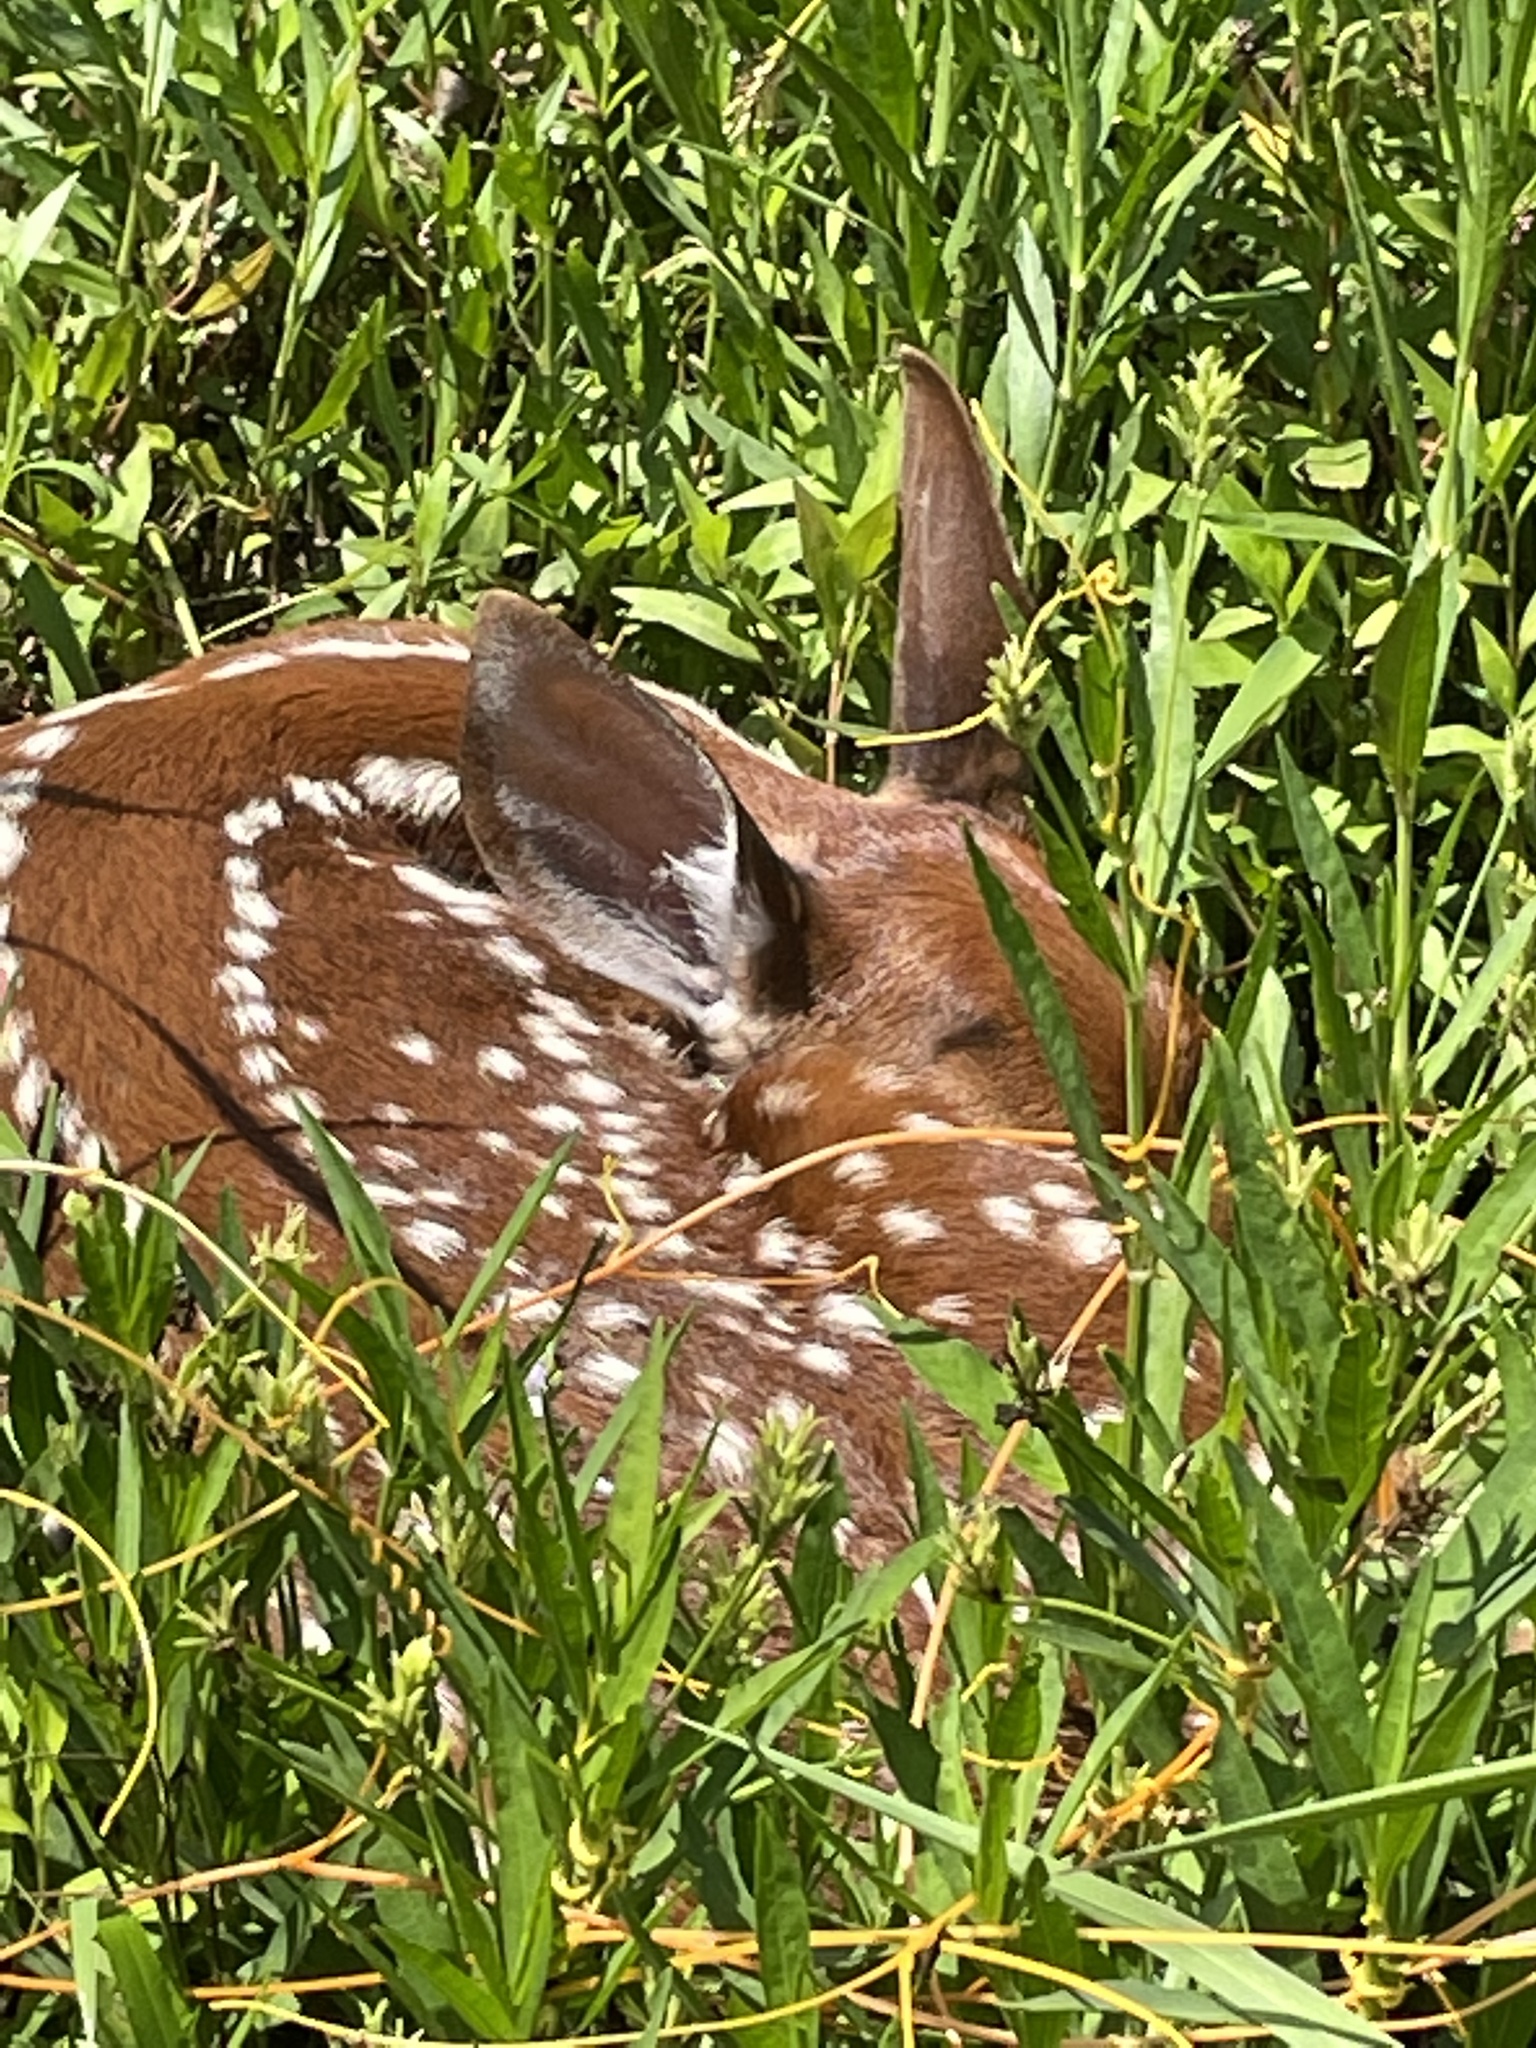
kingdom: Animalia
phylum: Chordata
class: Mammalia
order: Artiodactyla
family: Cervidae
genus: Odocoileus
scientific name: Odocoileus virginianus
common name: White-tailed deer
